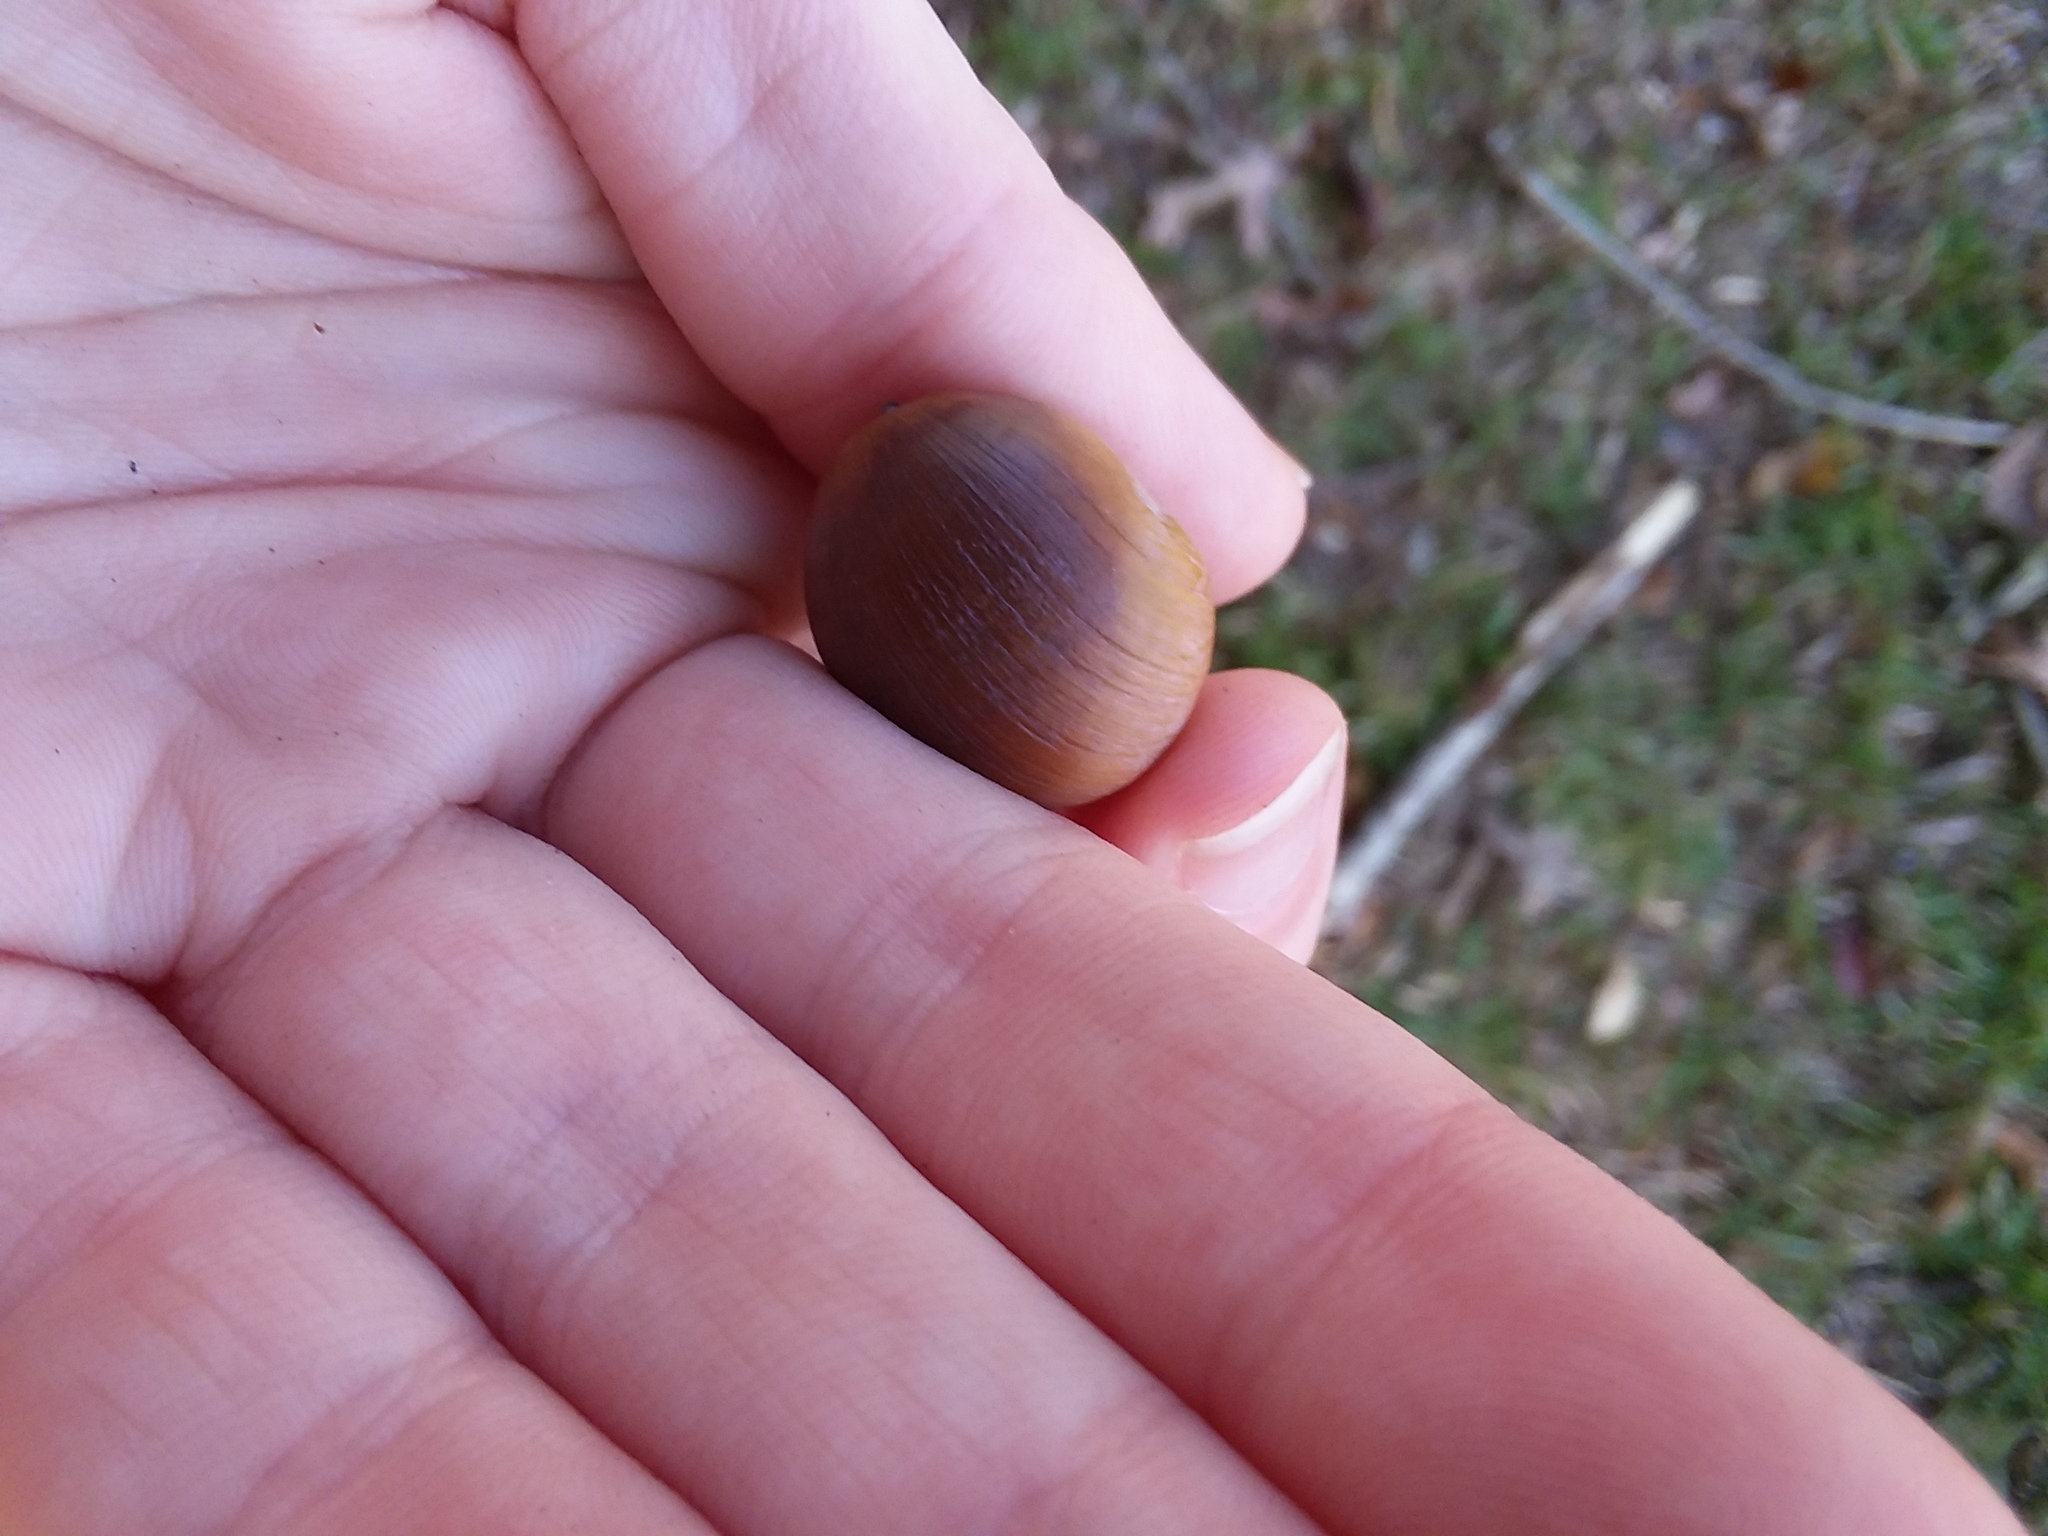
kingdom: Plantae
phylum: Tracheophyta
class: Magnoliopsida
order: Fagales
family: Fagaceae
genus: Quercus
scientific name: Quercus alba
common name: White oak
